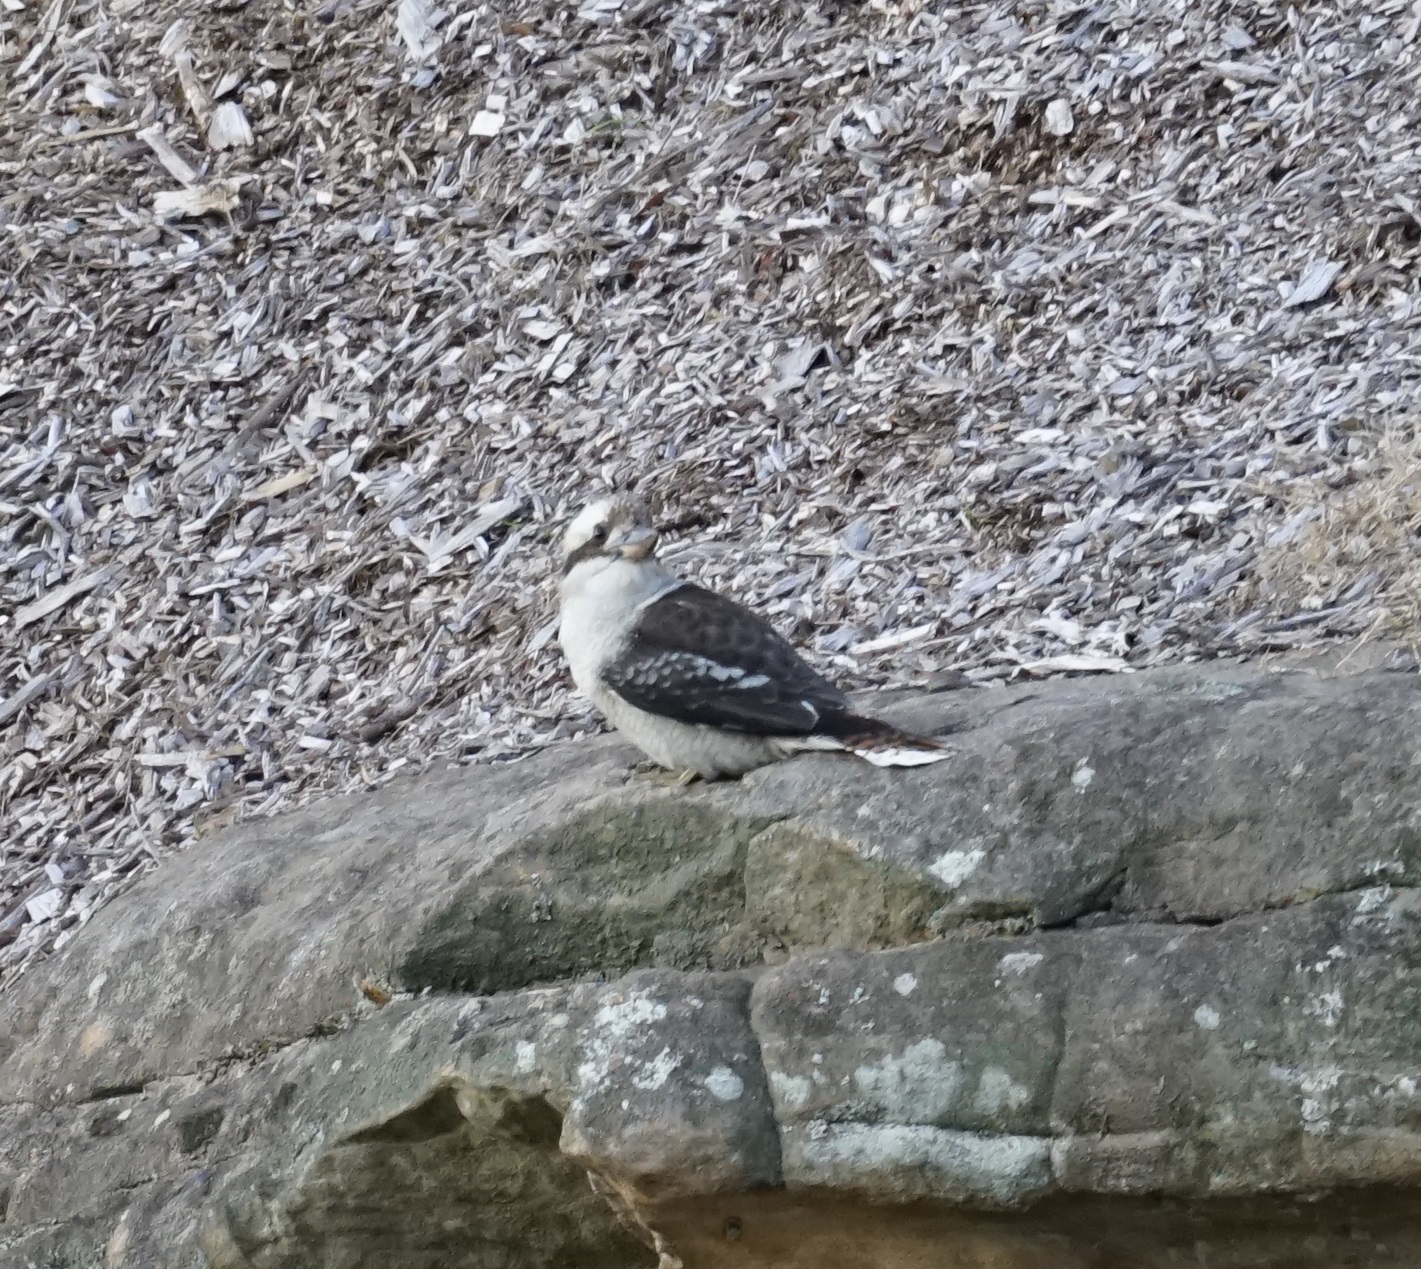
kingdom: Animalia
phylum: Chordata
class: Aves
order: Coraciiformes
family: Alcedinidae
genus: Dacelo
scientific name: Dacelo novaeguineae
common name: Laughing kookaburra
